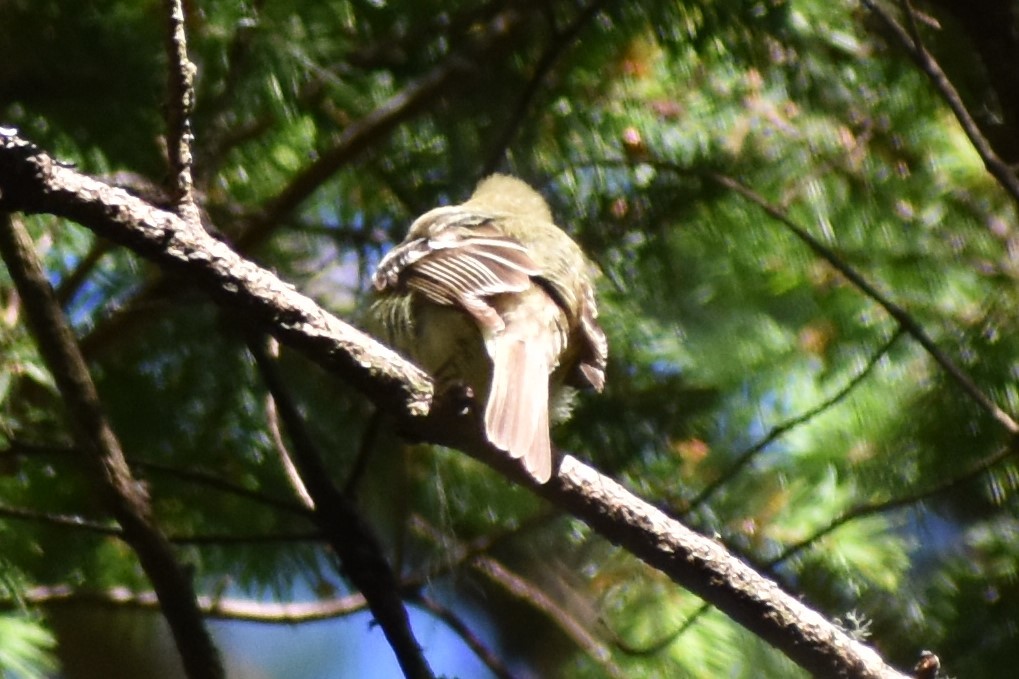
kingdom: Animalia
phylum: Chordata
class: Aves
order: Passeriformes
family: Tyrannidae
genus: Empidonax
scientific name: Empidonax difficilis
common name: Pacific-slope flycatcher
